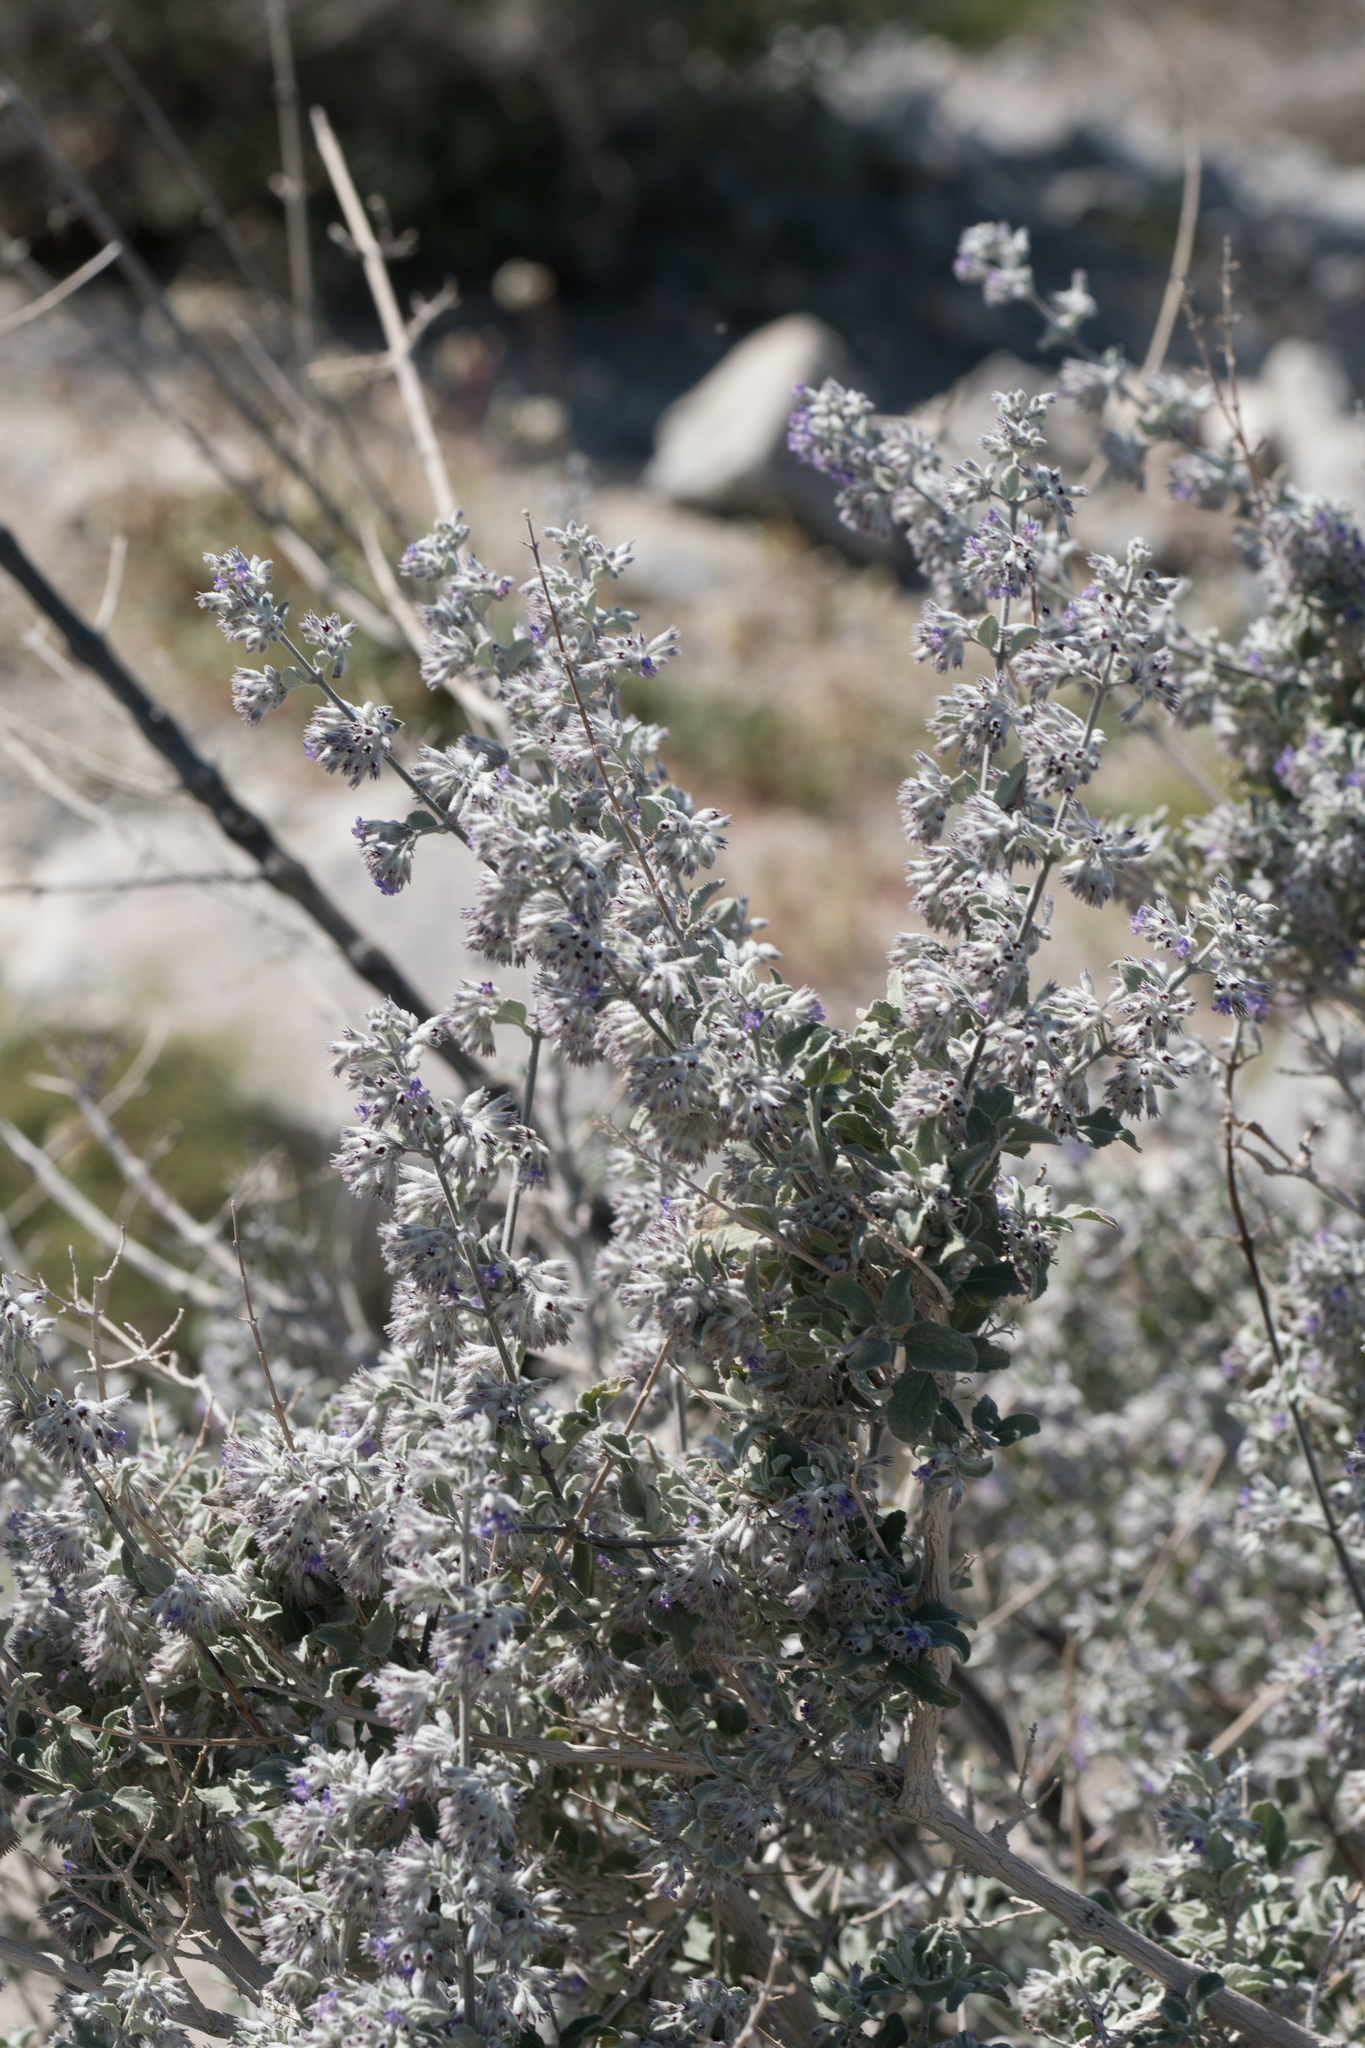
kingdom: Plantae
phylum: Tracheophyta
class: Magnoliopsida
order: Lamiales
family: Lamiaceae
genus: Condea
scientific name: Condea emoryi
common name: Chia
